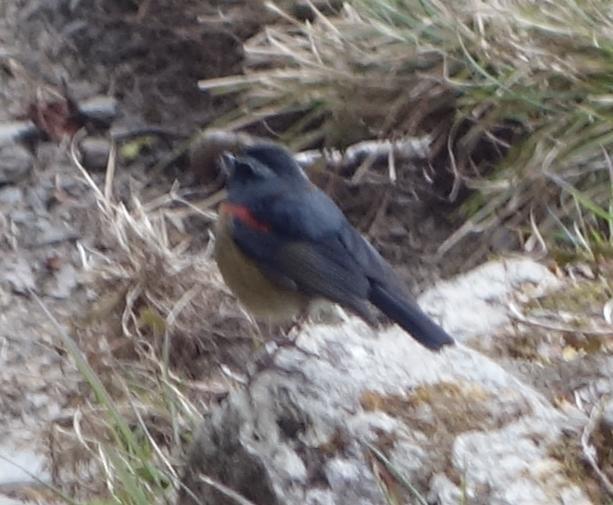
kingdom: Animalia
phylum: Chordata
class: Aves
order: Passeriformes
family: Muscicapidae
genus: Tarsiger
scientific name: Tarsiger johnstoniae
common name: Collared bush robin
